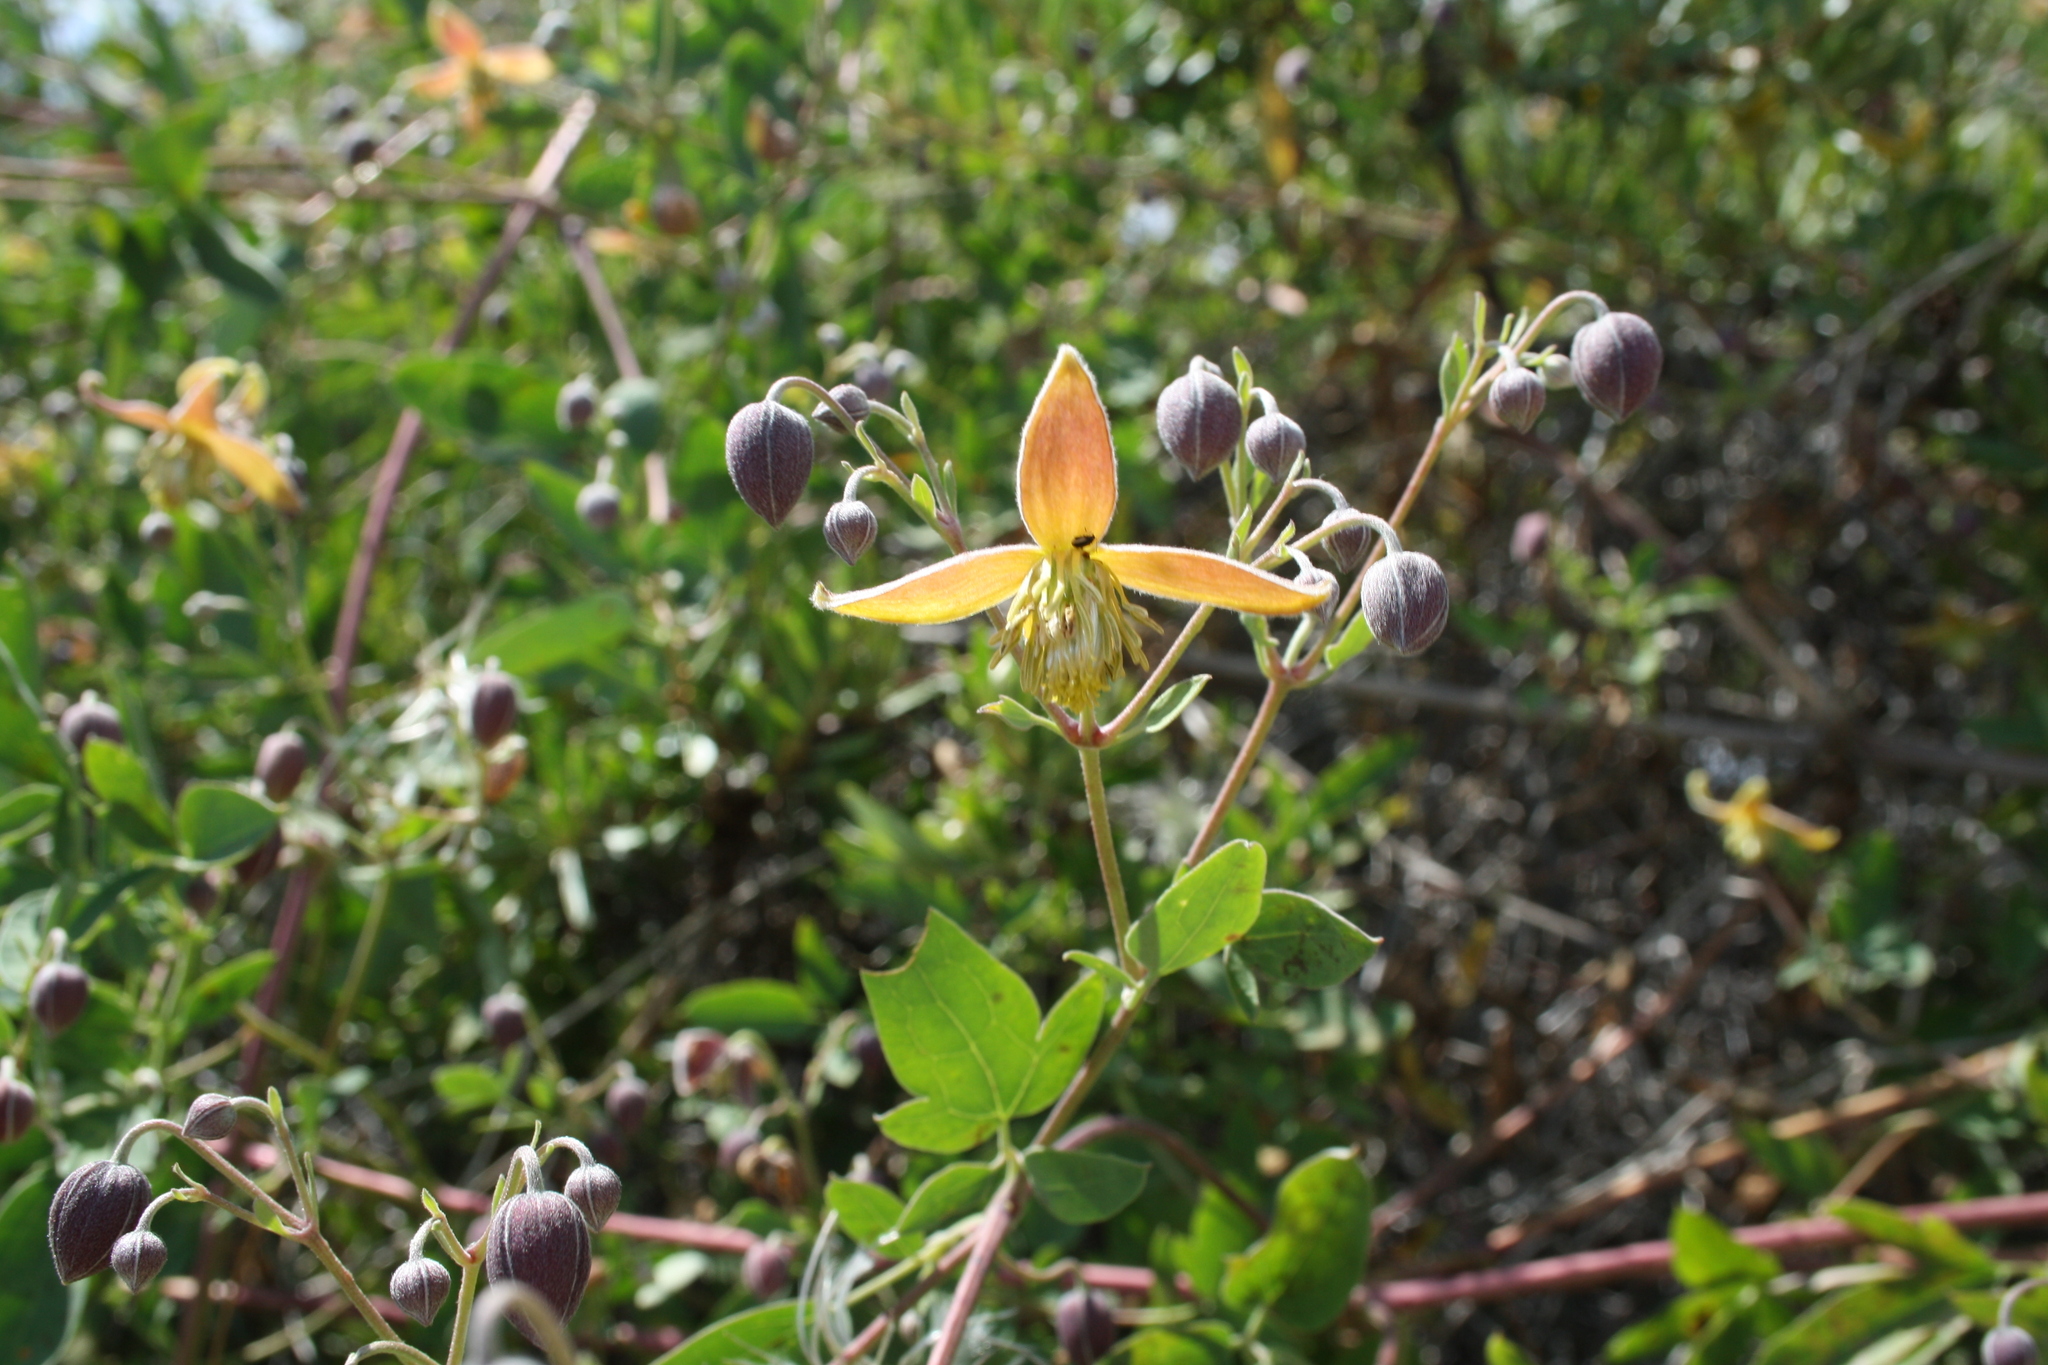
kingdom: Plantae
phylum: Tracheophyta
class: Magnoliopsida
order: Ranunculales
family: Ranunculaceae
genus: Clematis
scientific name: Clematis orientalis
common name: Oriental virgin's-bower
